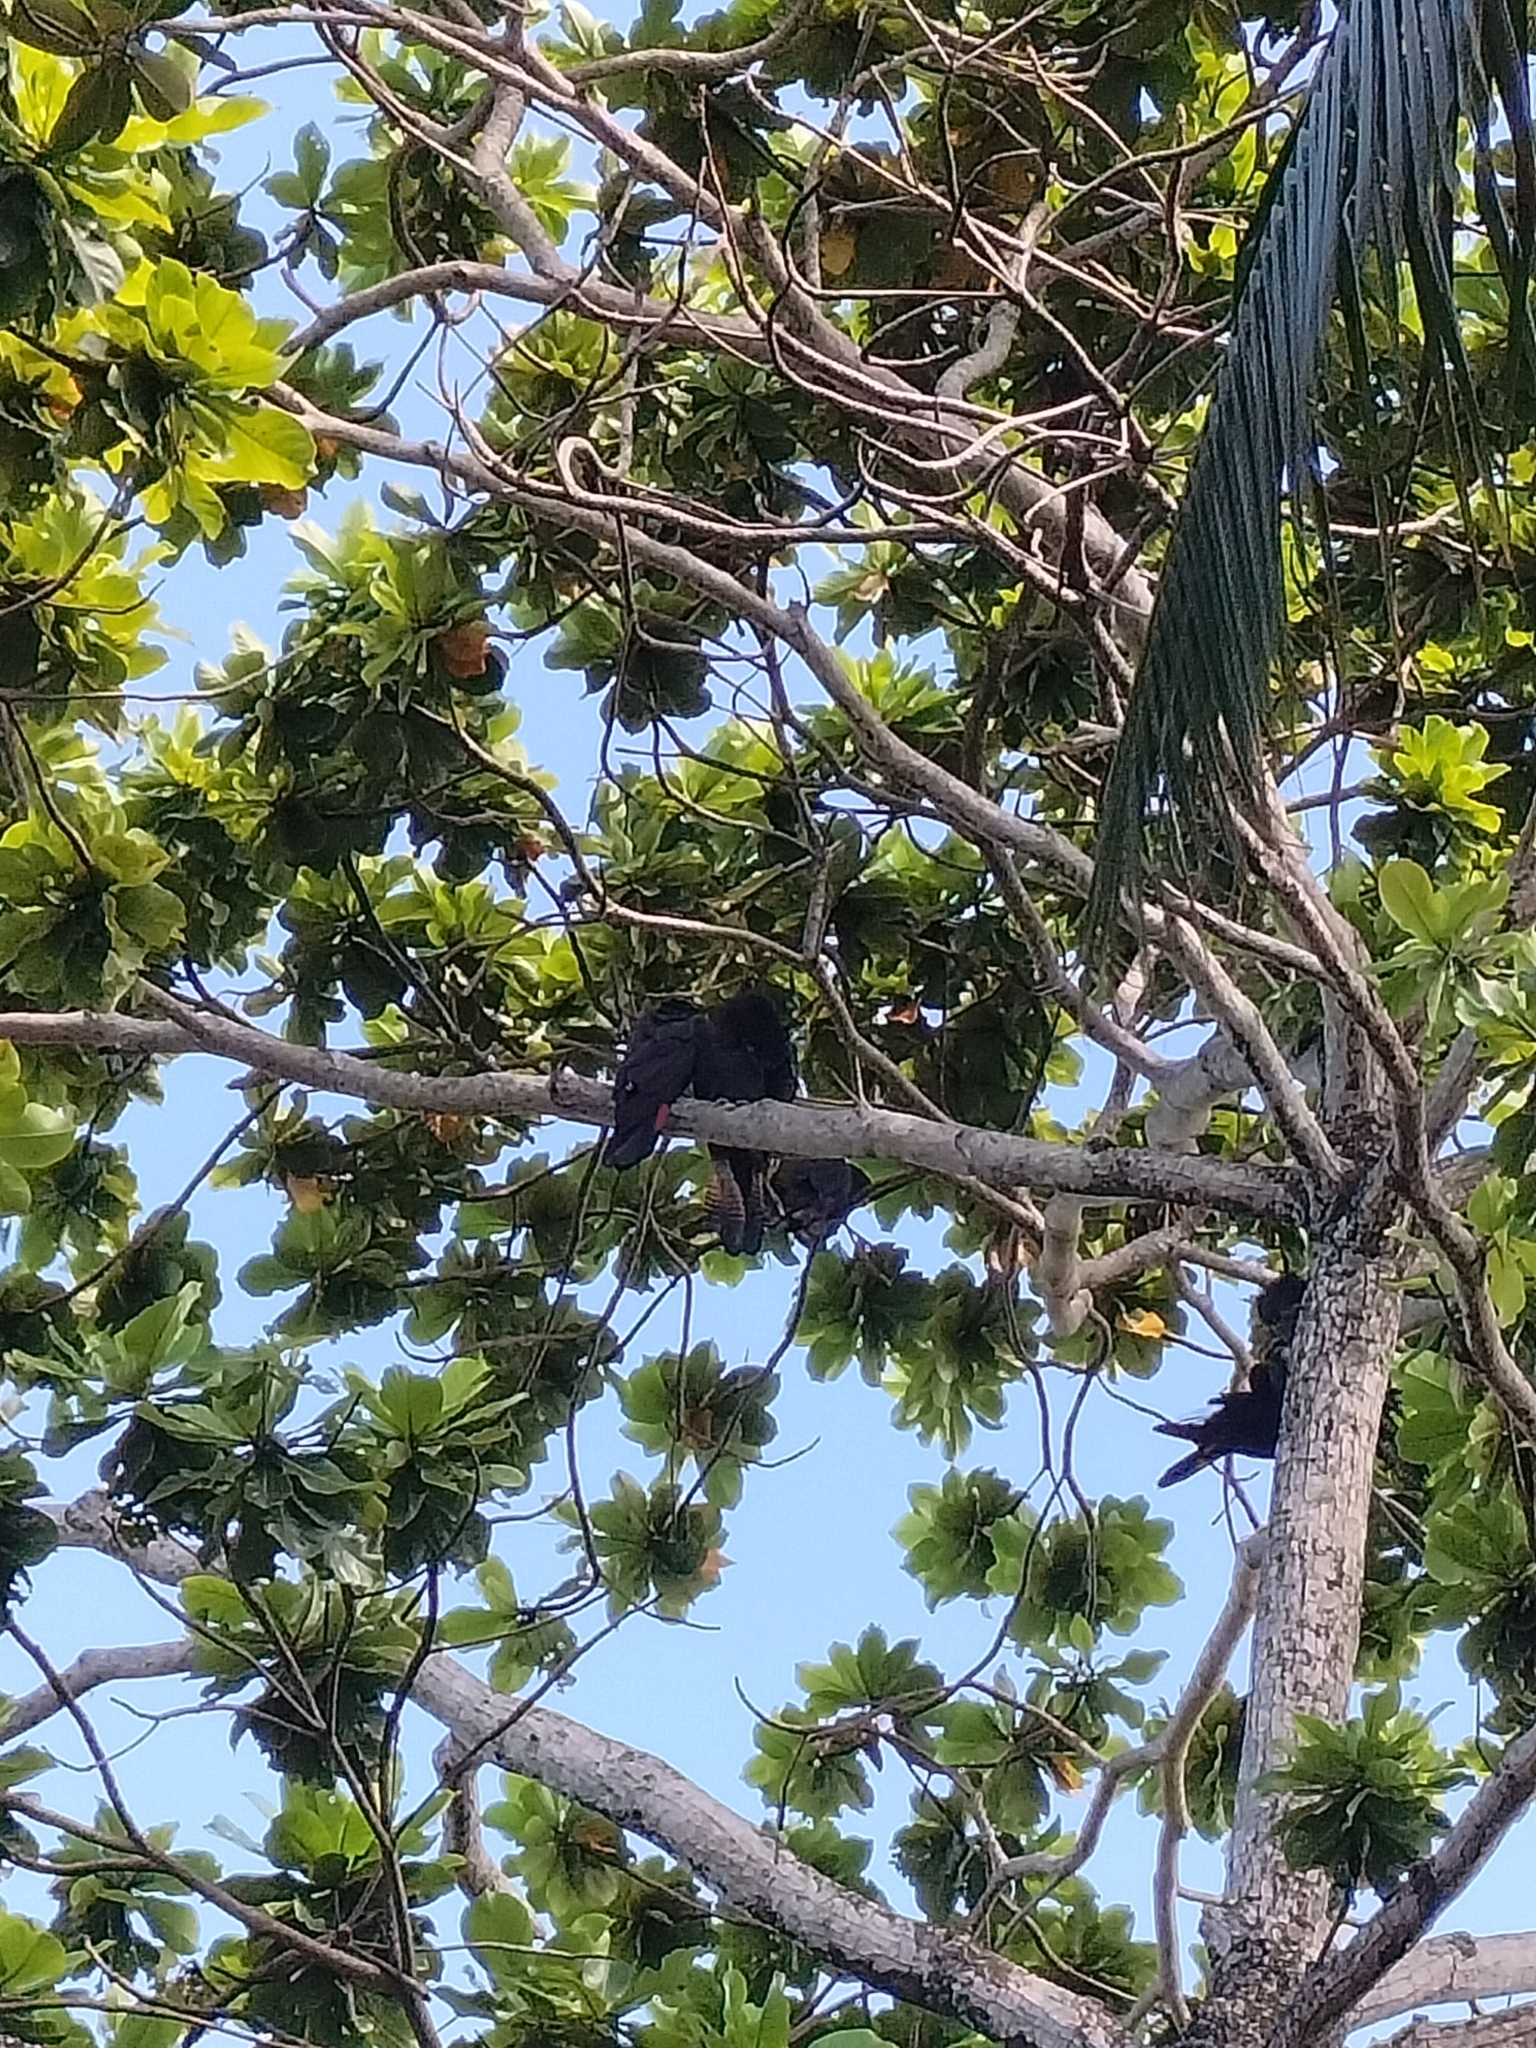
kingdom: Animalia
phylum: Chordata
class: Aves
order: Psittaciformes
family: Psittacidae
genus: Calyptorhynchus
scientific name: Calyptorhynchus banksii
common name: Red-tailed black cockatoo
